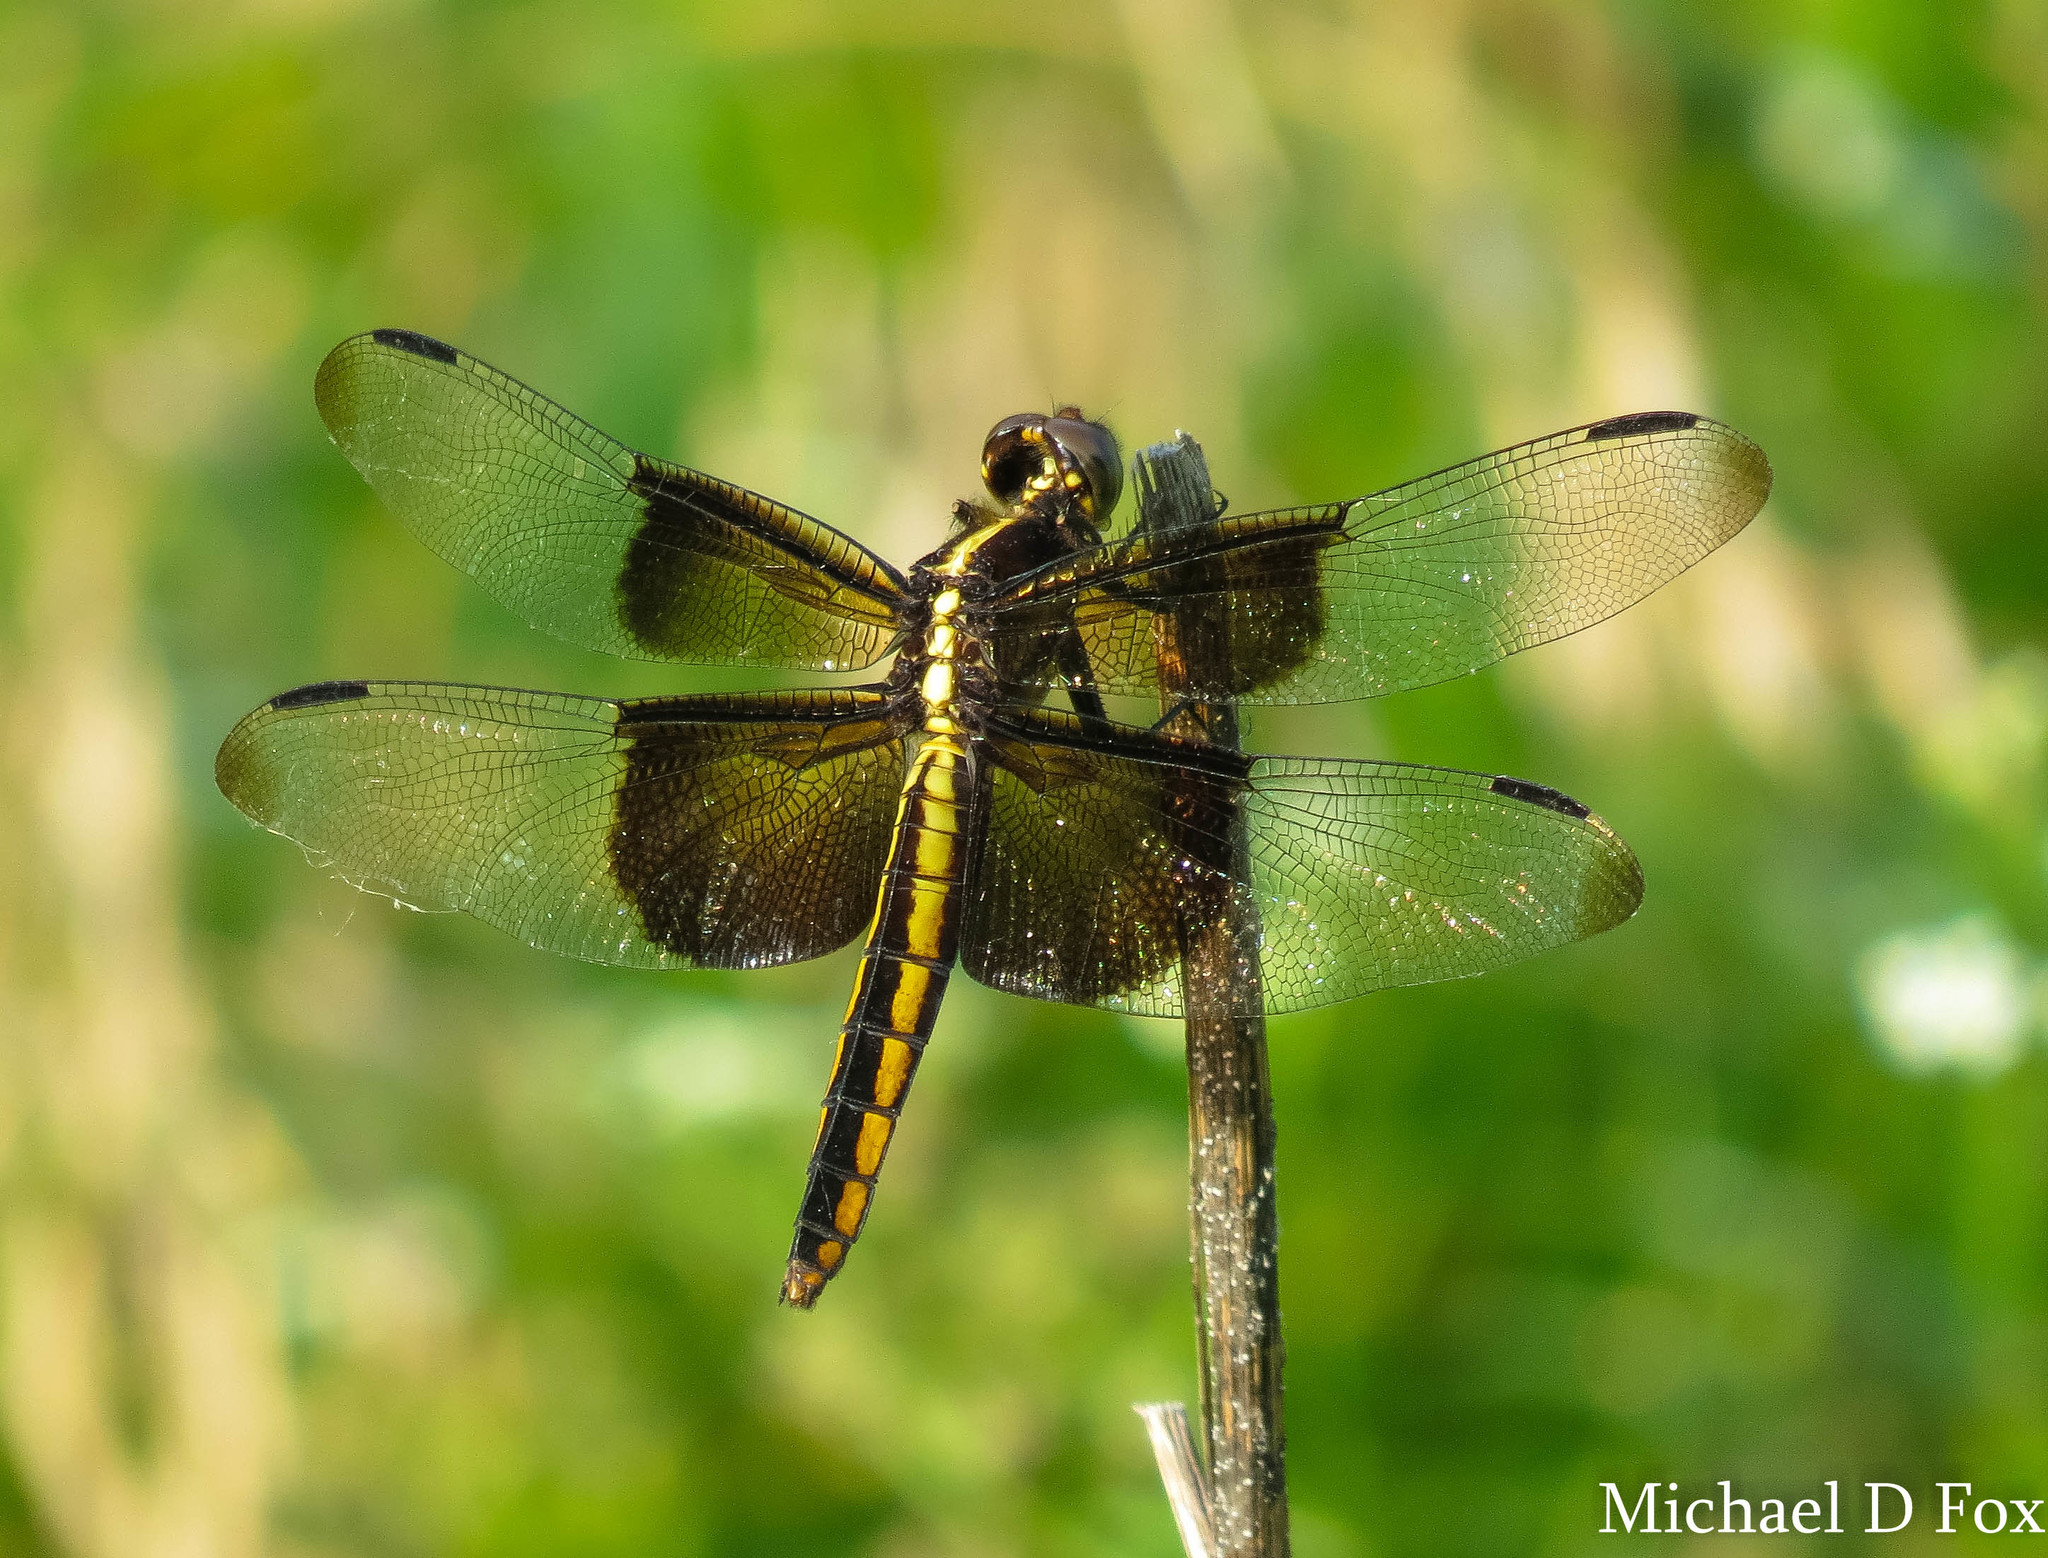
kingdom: Animalia
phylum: Arthropoda
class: Insecta
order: Odonata
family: Libellulidae
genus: Libellula
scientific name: Libellula luctuosa
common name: Widow skimmer
